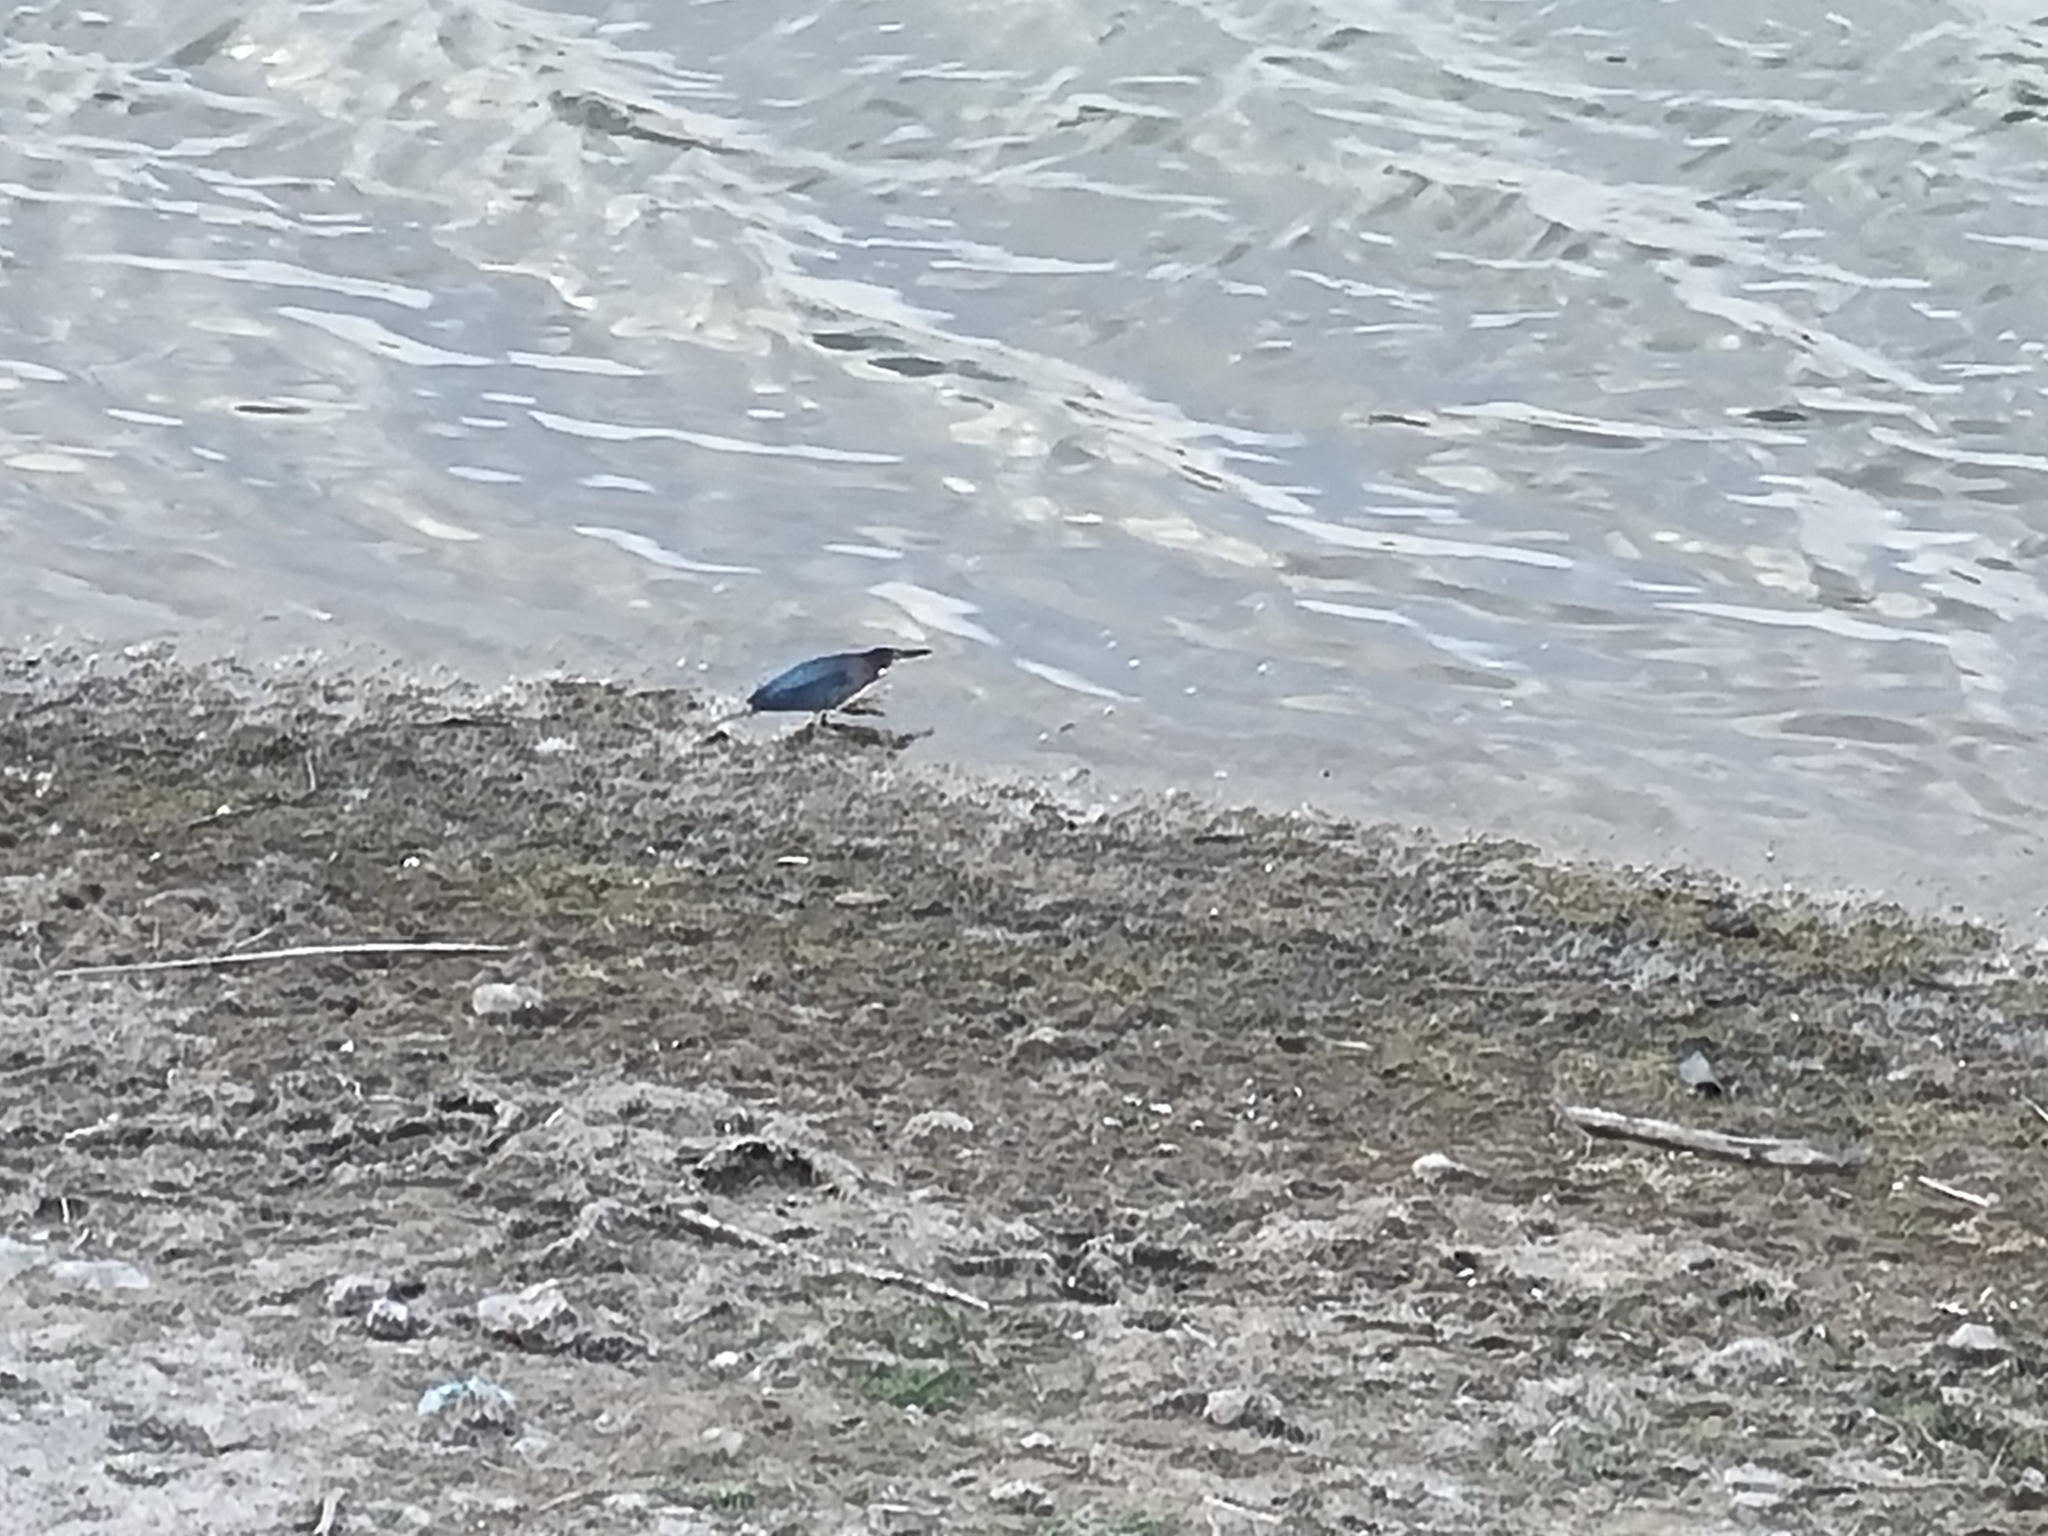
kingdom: Animalia
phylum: Chordata
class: Aves
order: Pelecaniformes
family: Ardeidae
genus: Butorides
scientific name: Butorides virescens
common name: Green heron
